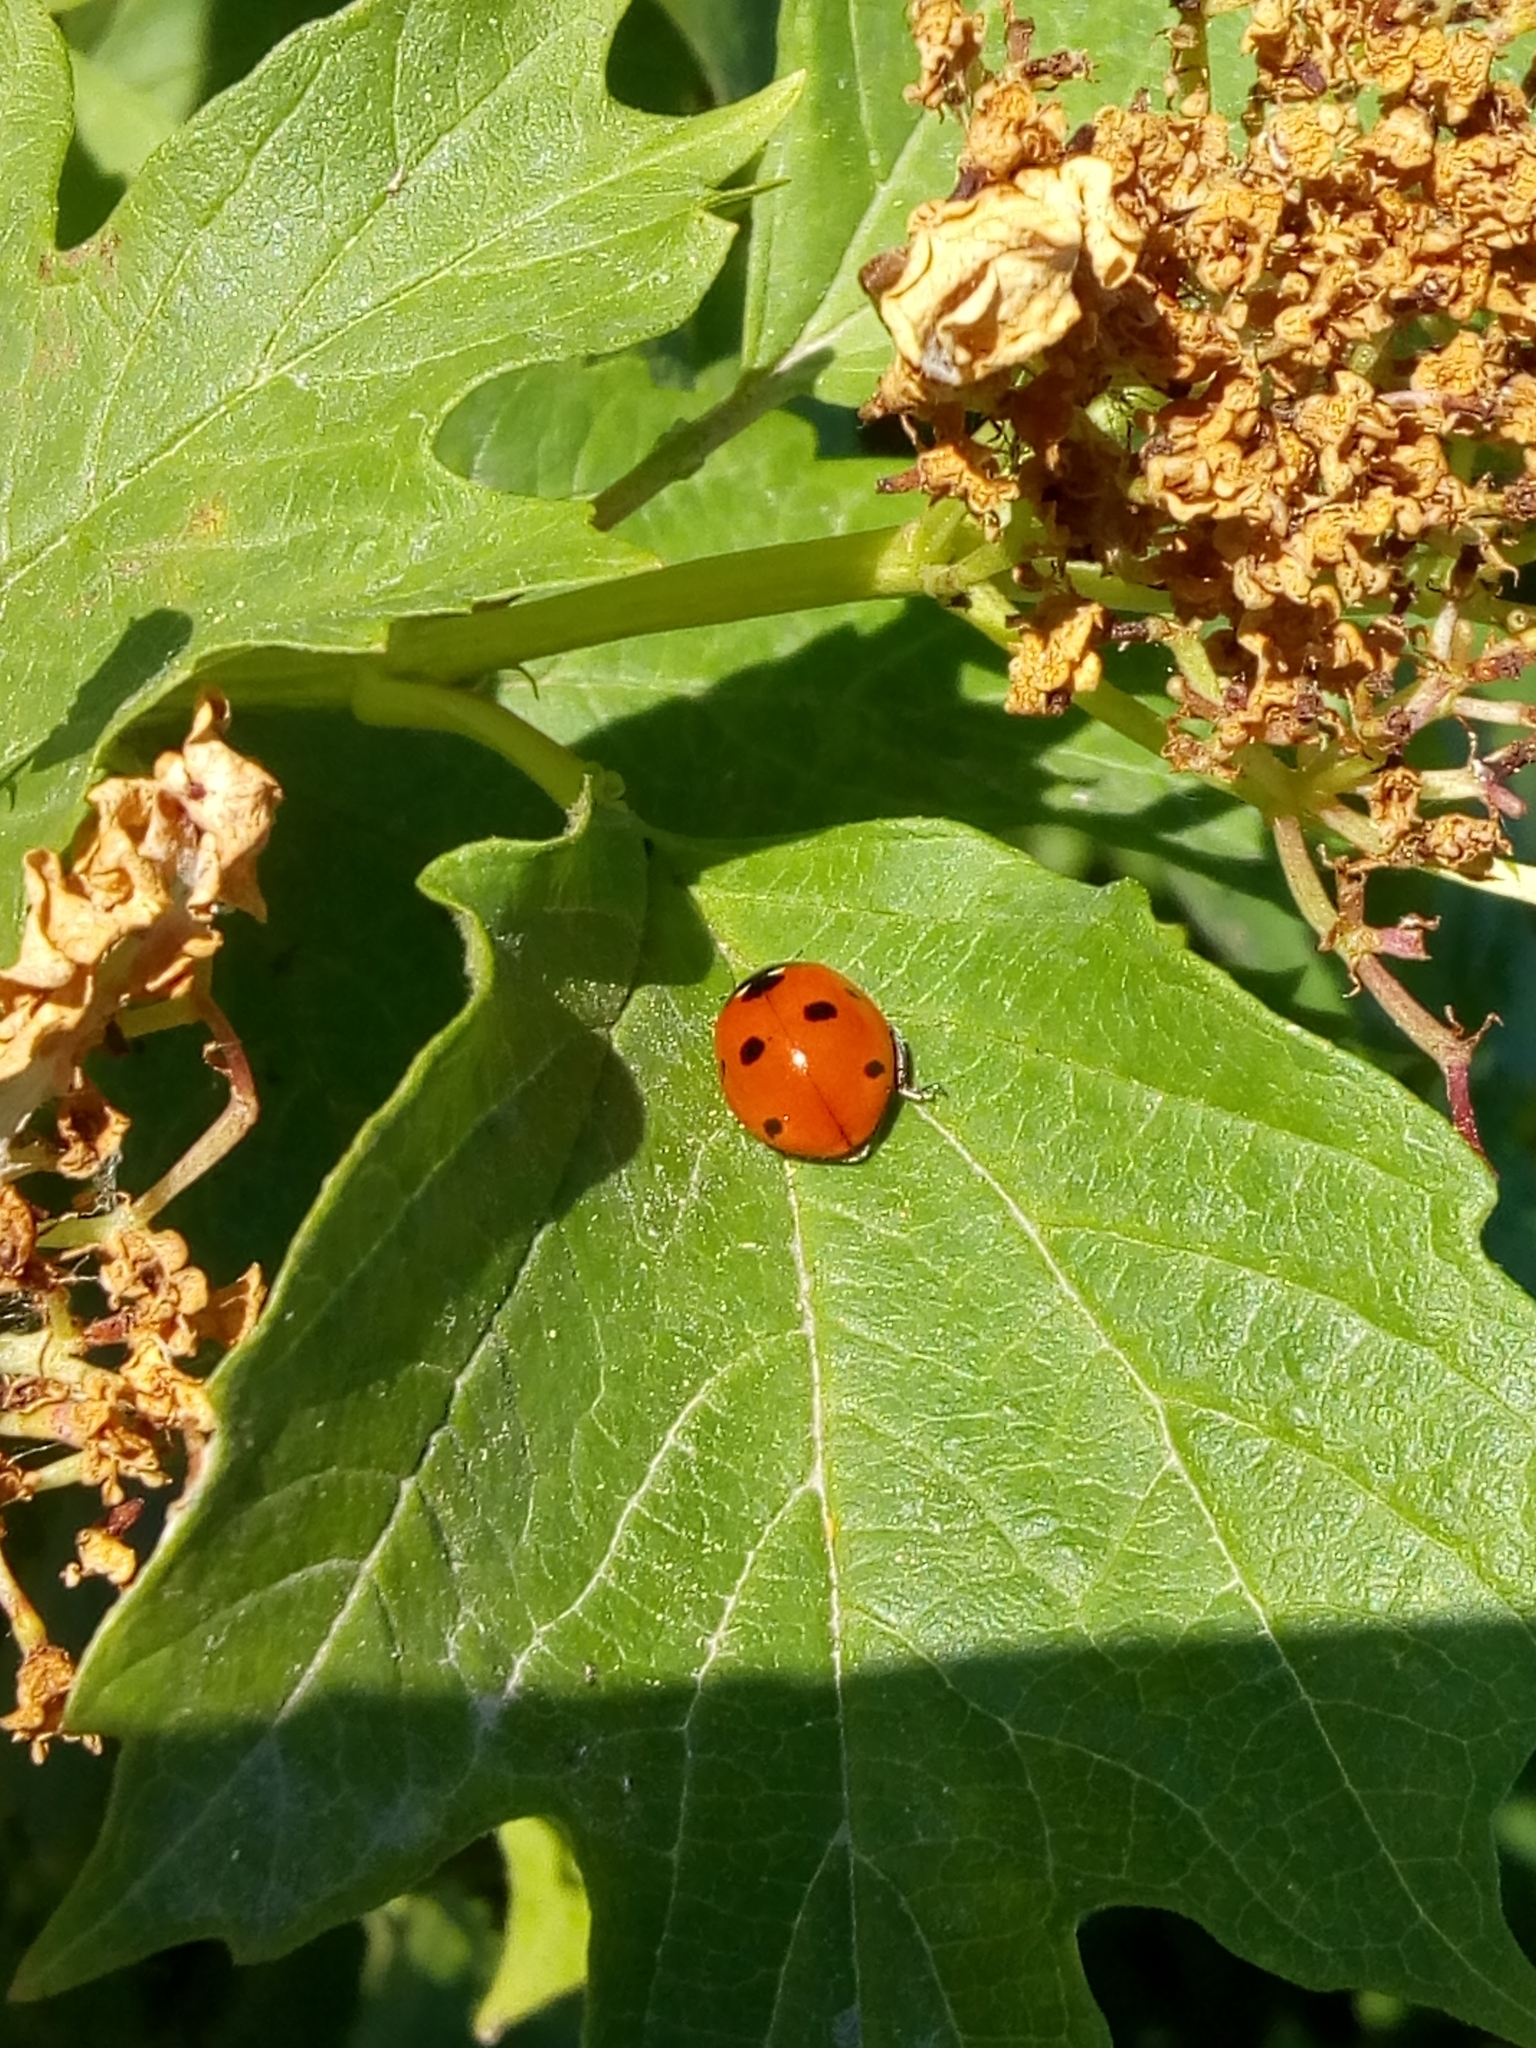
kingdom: Animalia
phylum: Arthropoda
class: Insecta
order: Coleoptera
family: Coccinellidae
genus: Coccinella
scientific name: Coccinella septempunctata
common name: Sevenspotted lady beetle
